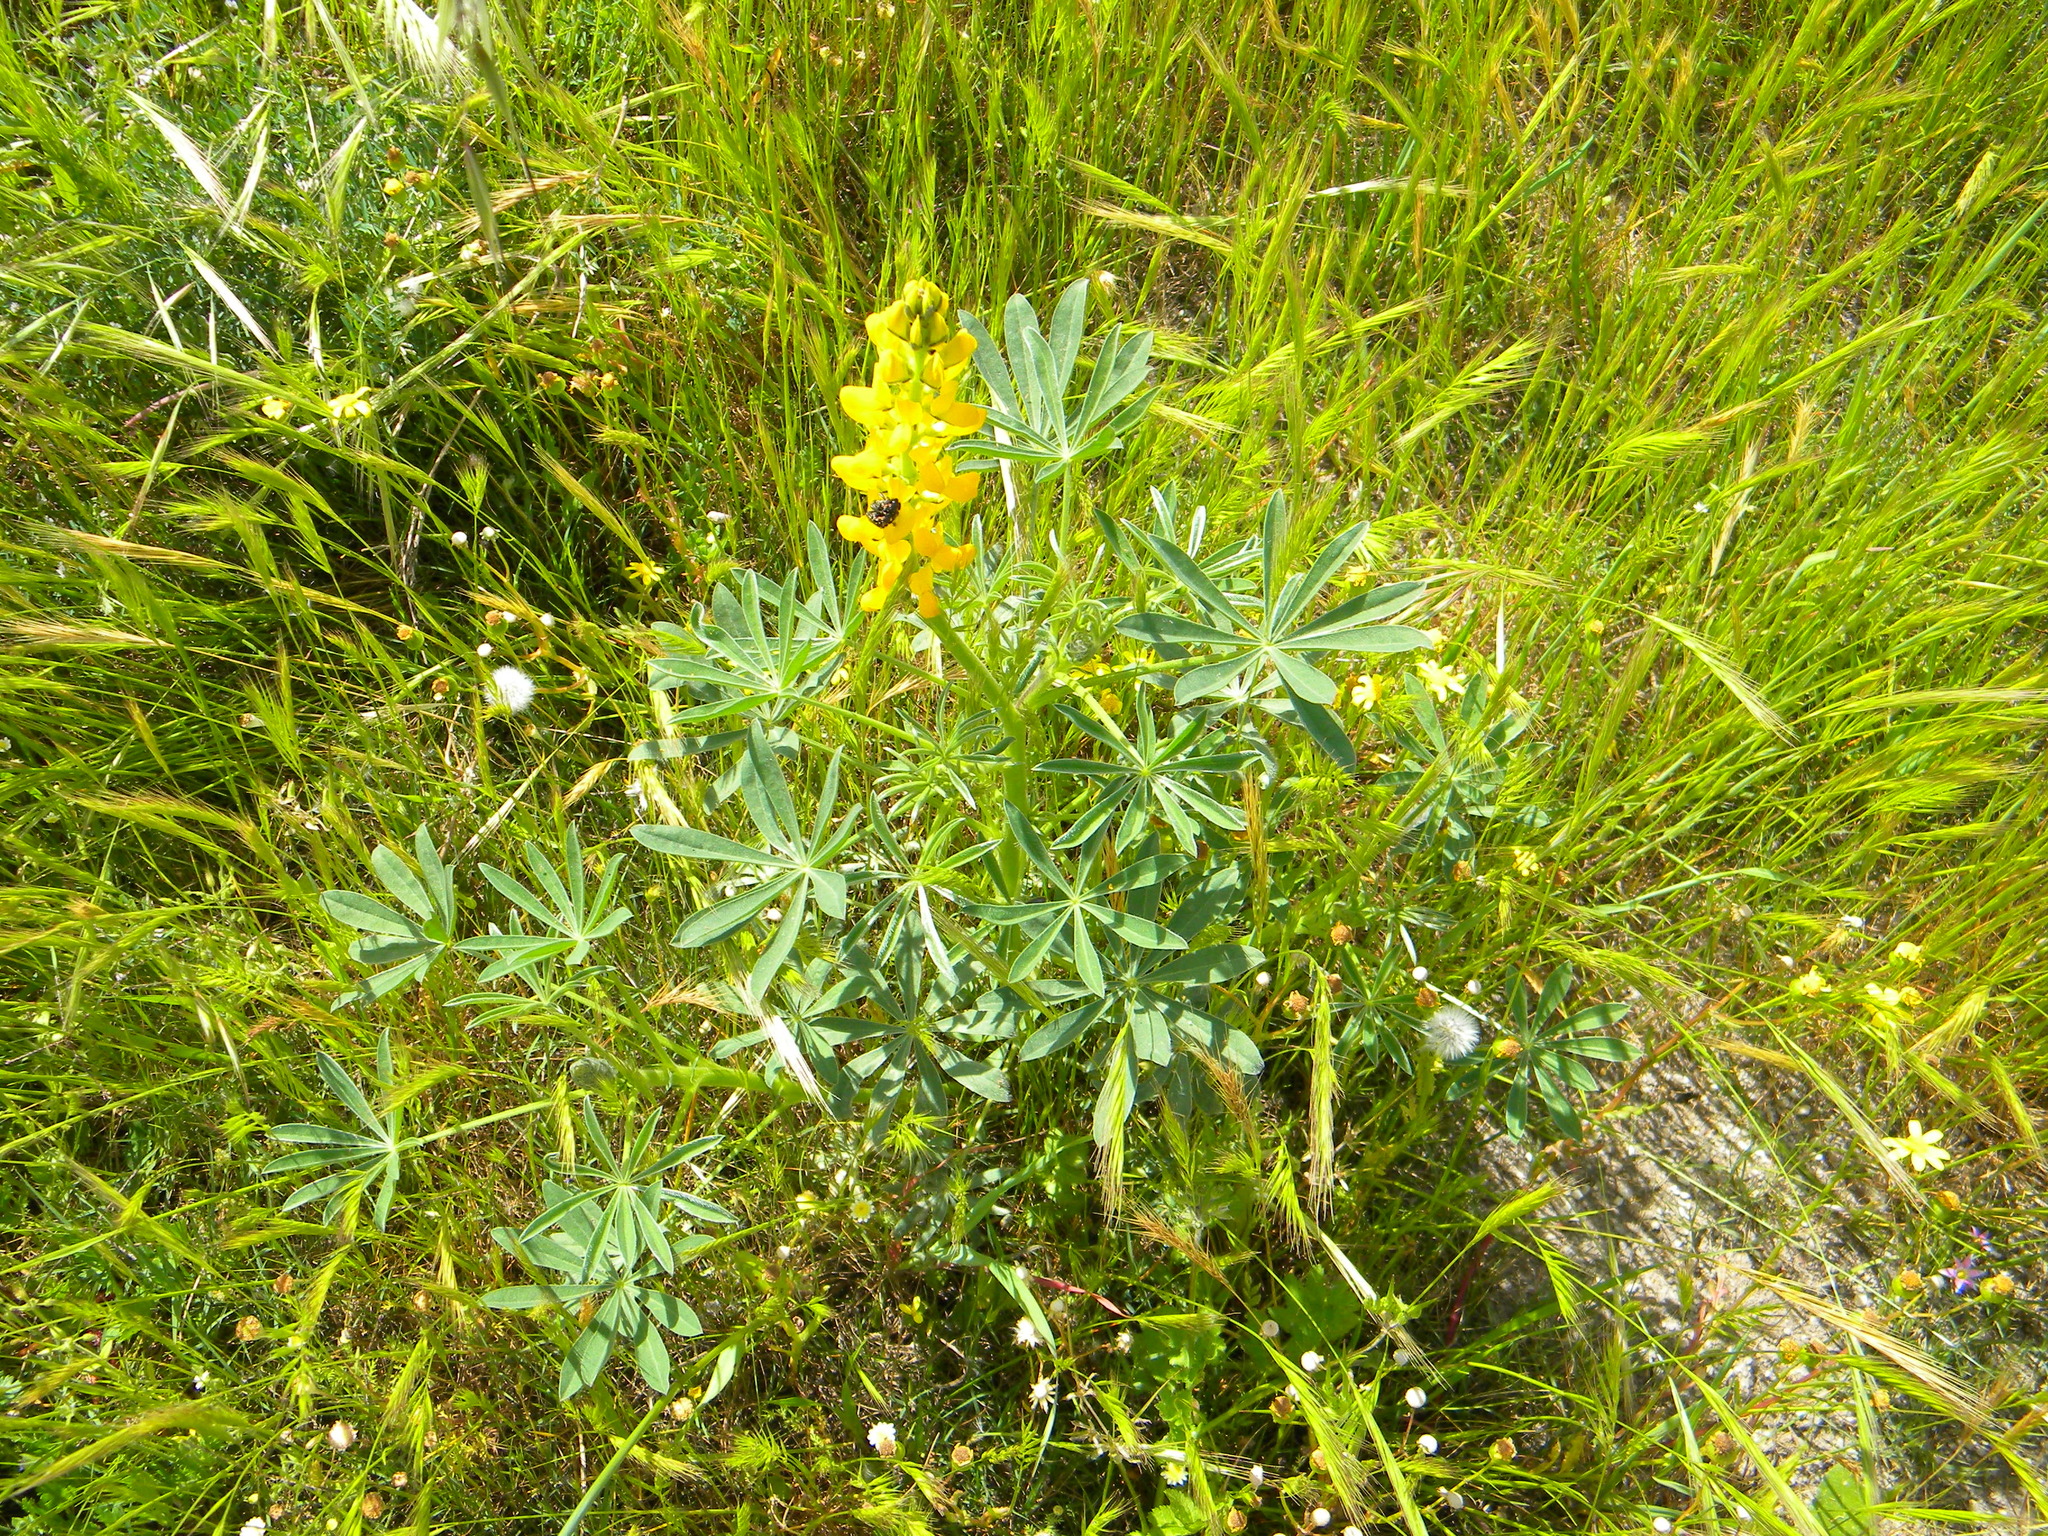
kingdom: Plantae
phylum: Tracheophyta
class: Magnoliopsida
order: Fabales
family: Fabaceae
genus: Lupinus
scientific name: Lupinus luteus
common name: European yellow lupine
